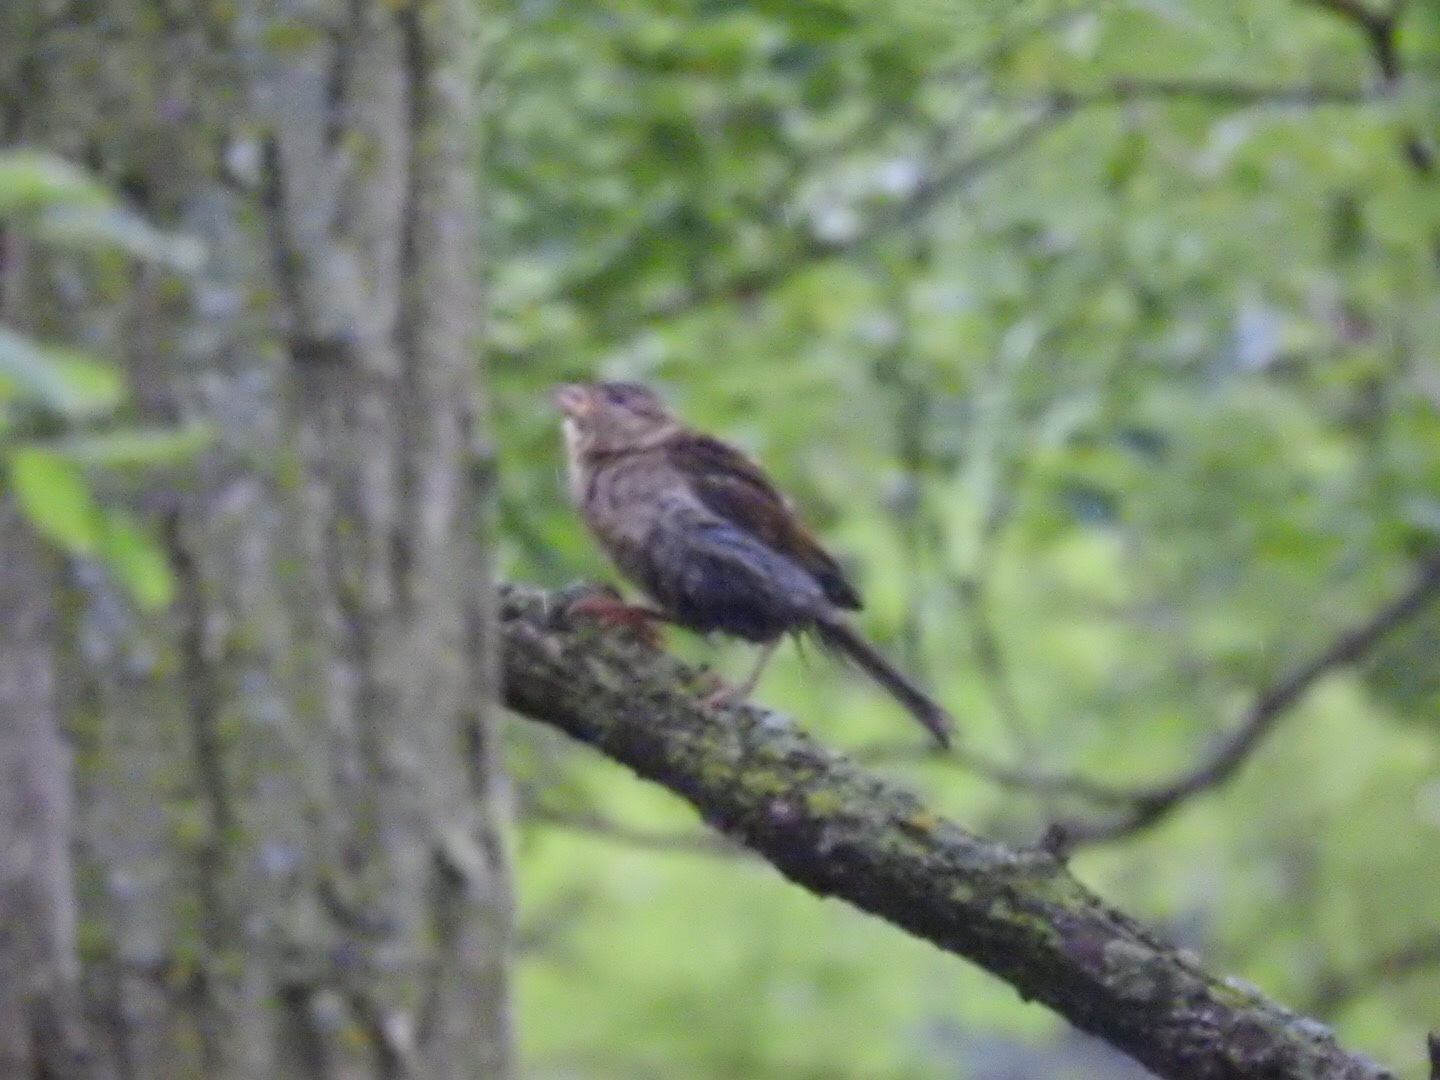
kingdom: Animalia
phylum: Chordata
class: Aves
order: Passeriformes
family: Passeridae
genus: Passer
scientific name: Passer domesticus
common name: House sparrow
